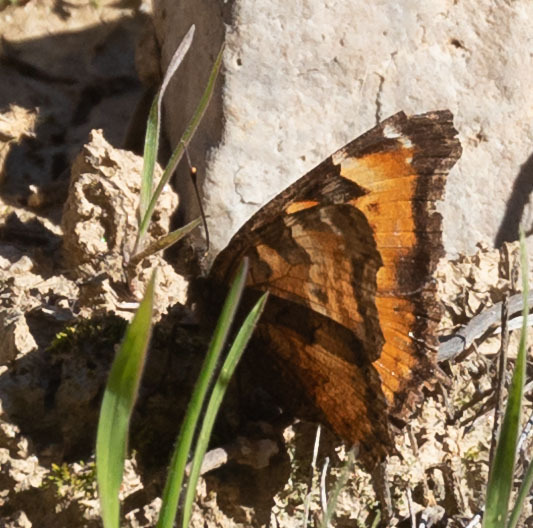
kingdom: Animalia
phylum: Arthropoda
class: Insecta
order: Lepidoptera
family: Nymphalidae
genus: Nymphalis
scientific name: Nymphalis californica
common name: California tortoiseshell
